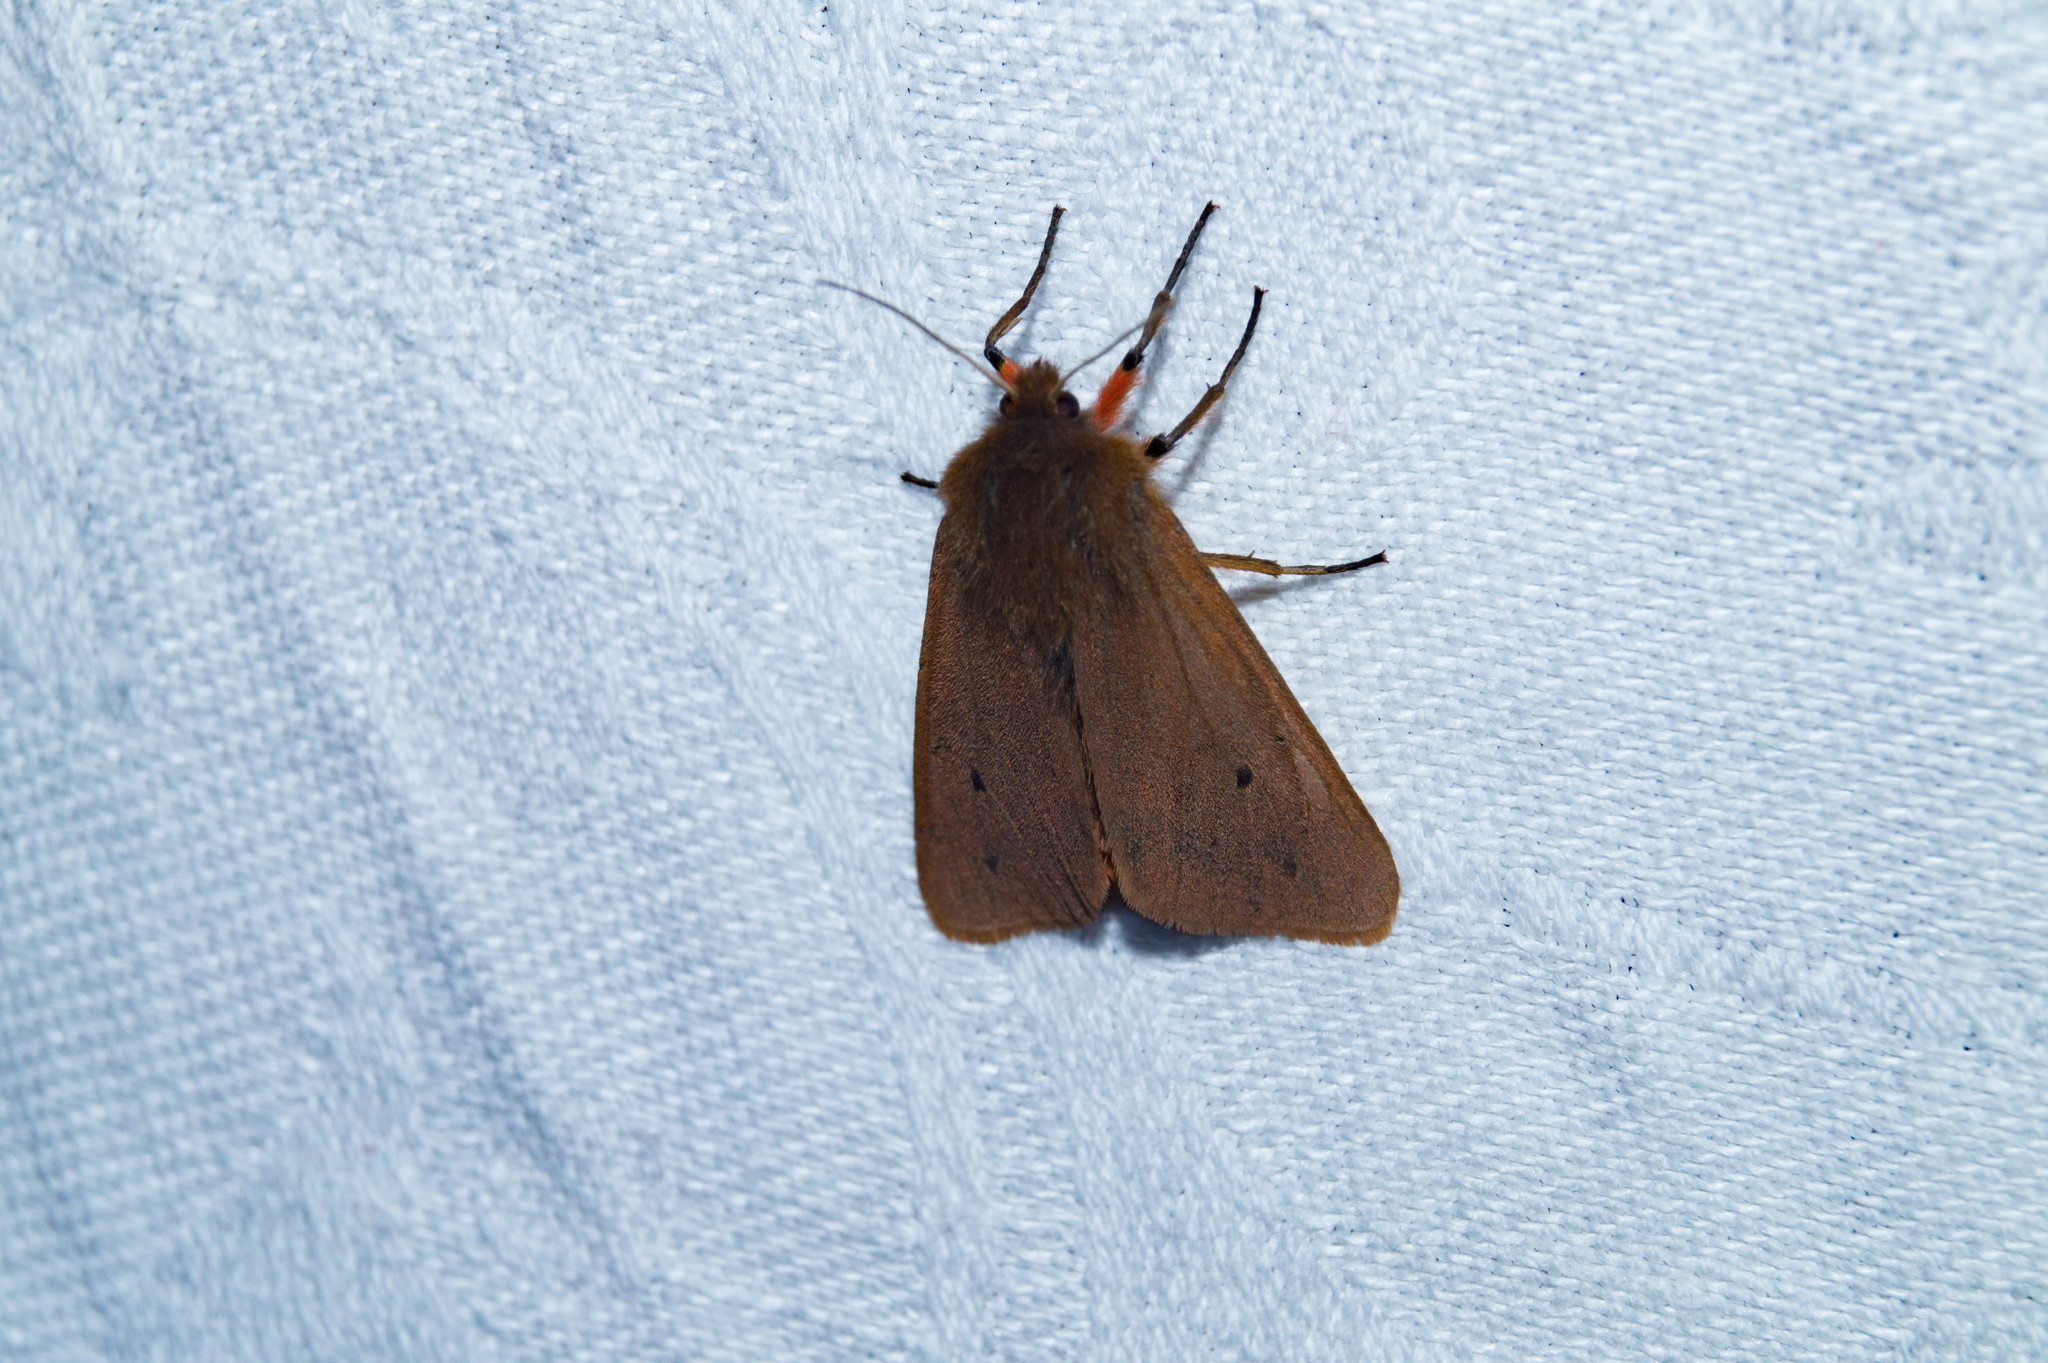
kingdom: Animalia
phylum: Arthropoda
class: Insecta
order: Lepidoptera
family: Erebidae
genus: Phragmatobia
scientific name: Phragmatobia fuliginosa
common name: Ruby tiger
